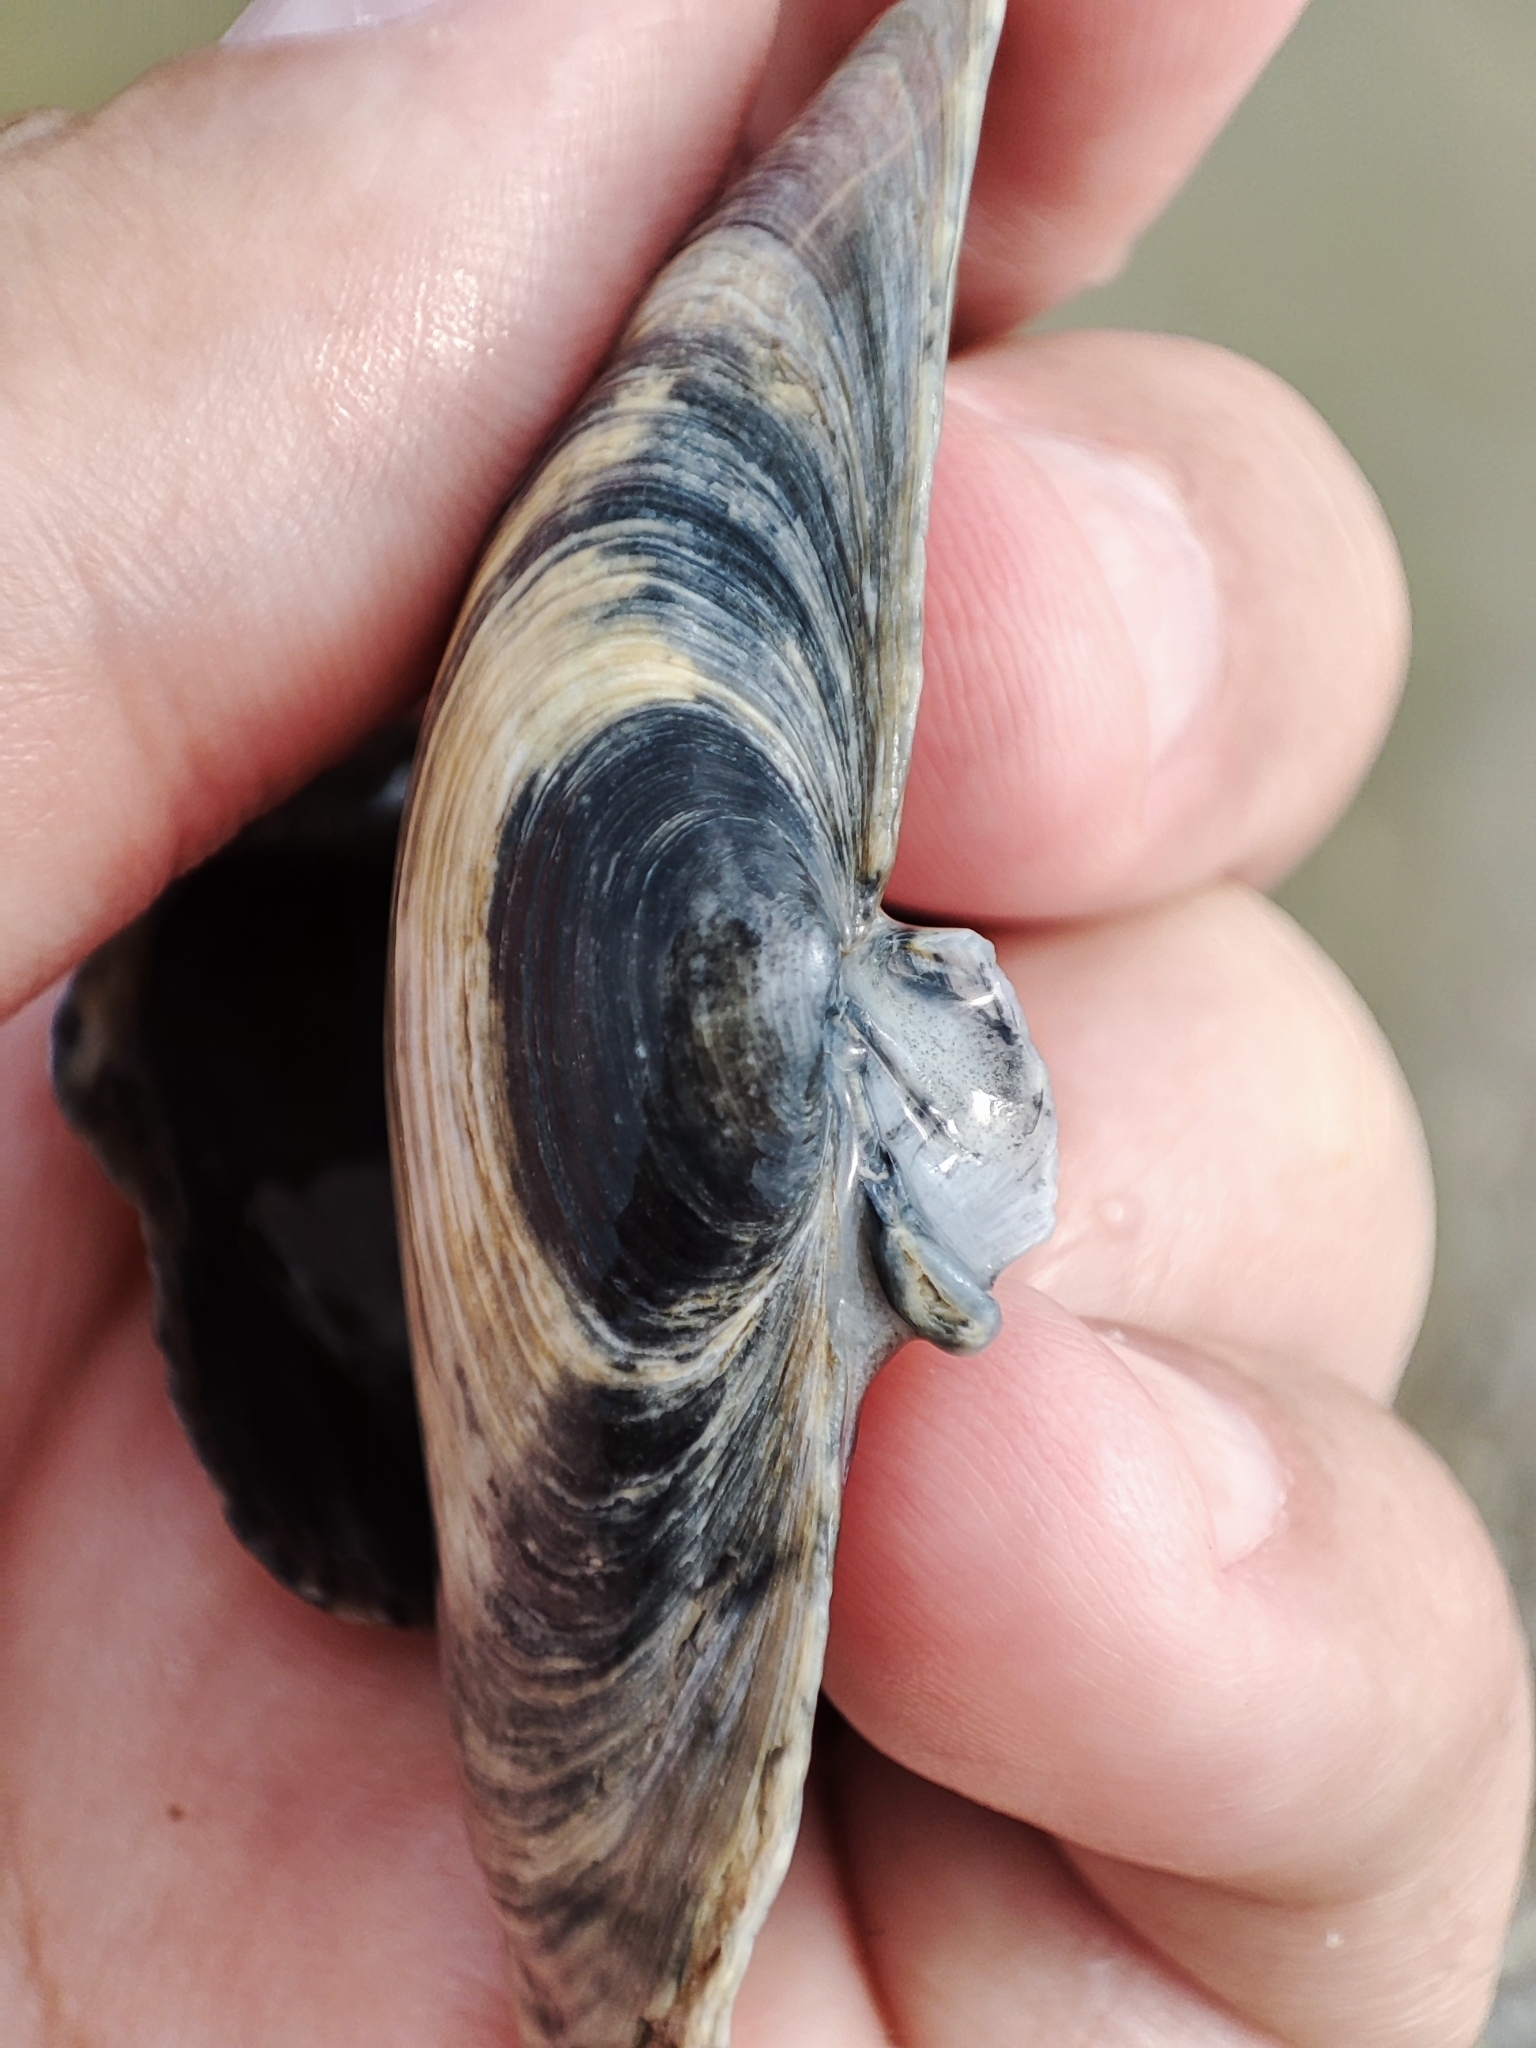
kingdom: Animalia
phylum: Mollusca
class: Bivalvia
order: Myida
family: Myidae
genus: Mya
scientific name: Mya arenaria
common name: Soft-shelled clam
